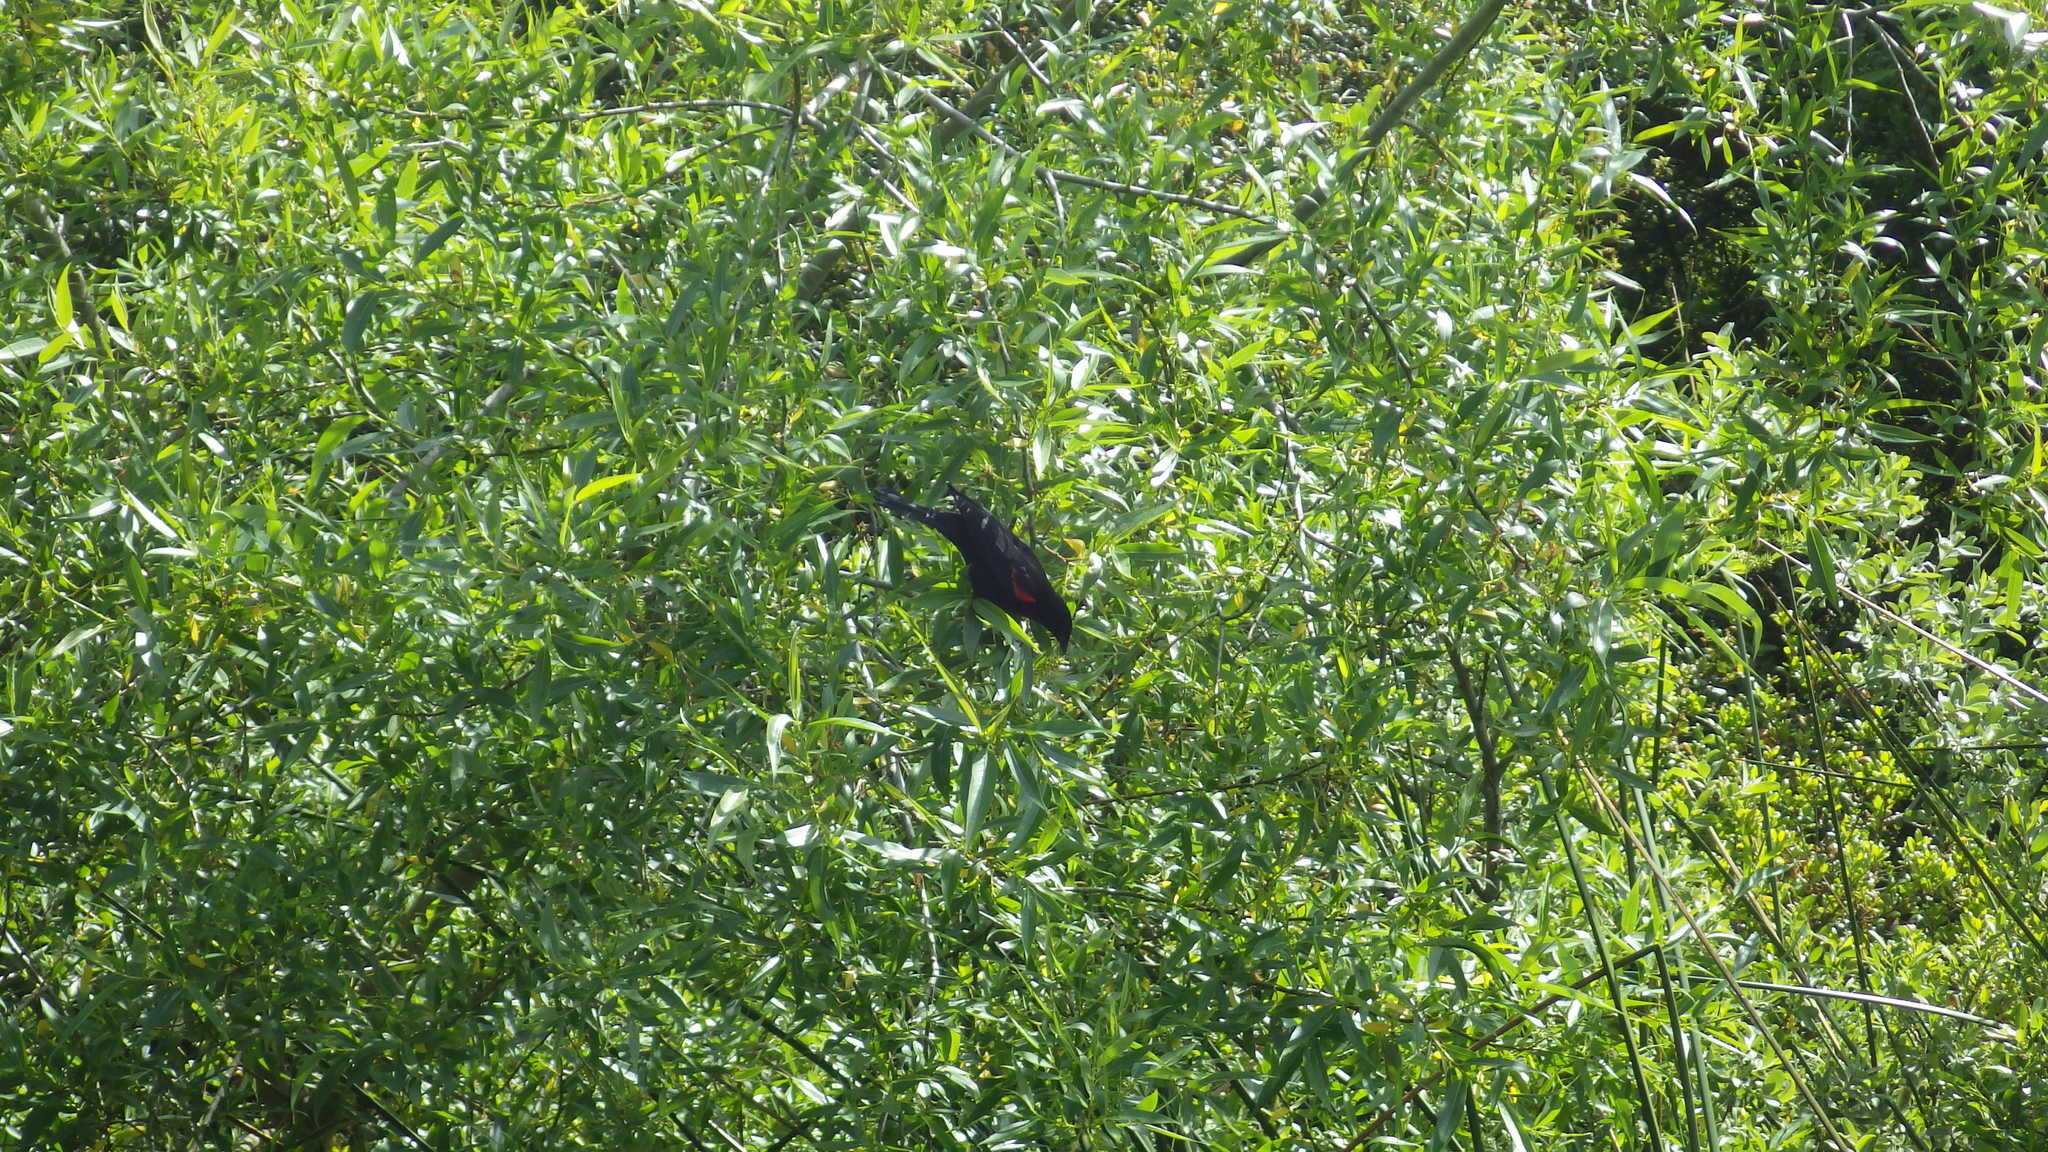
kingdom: Animalia
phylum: Chordata
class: Aves
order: Passeriformes
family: Icteridae
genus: Agelaius
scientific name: Agelaius phoeniceus
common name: Red-winged blackbird
